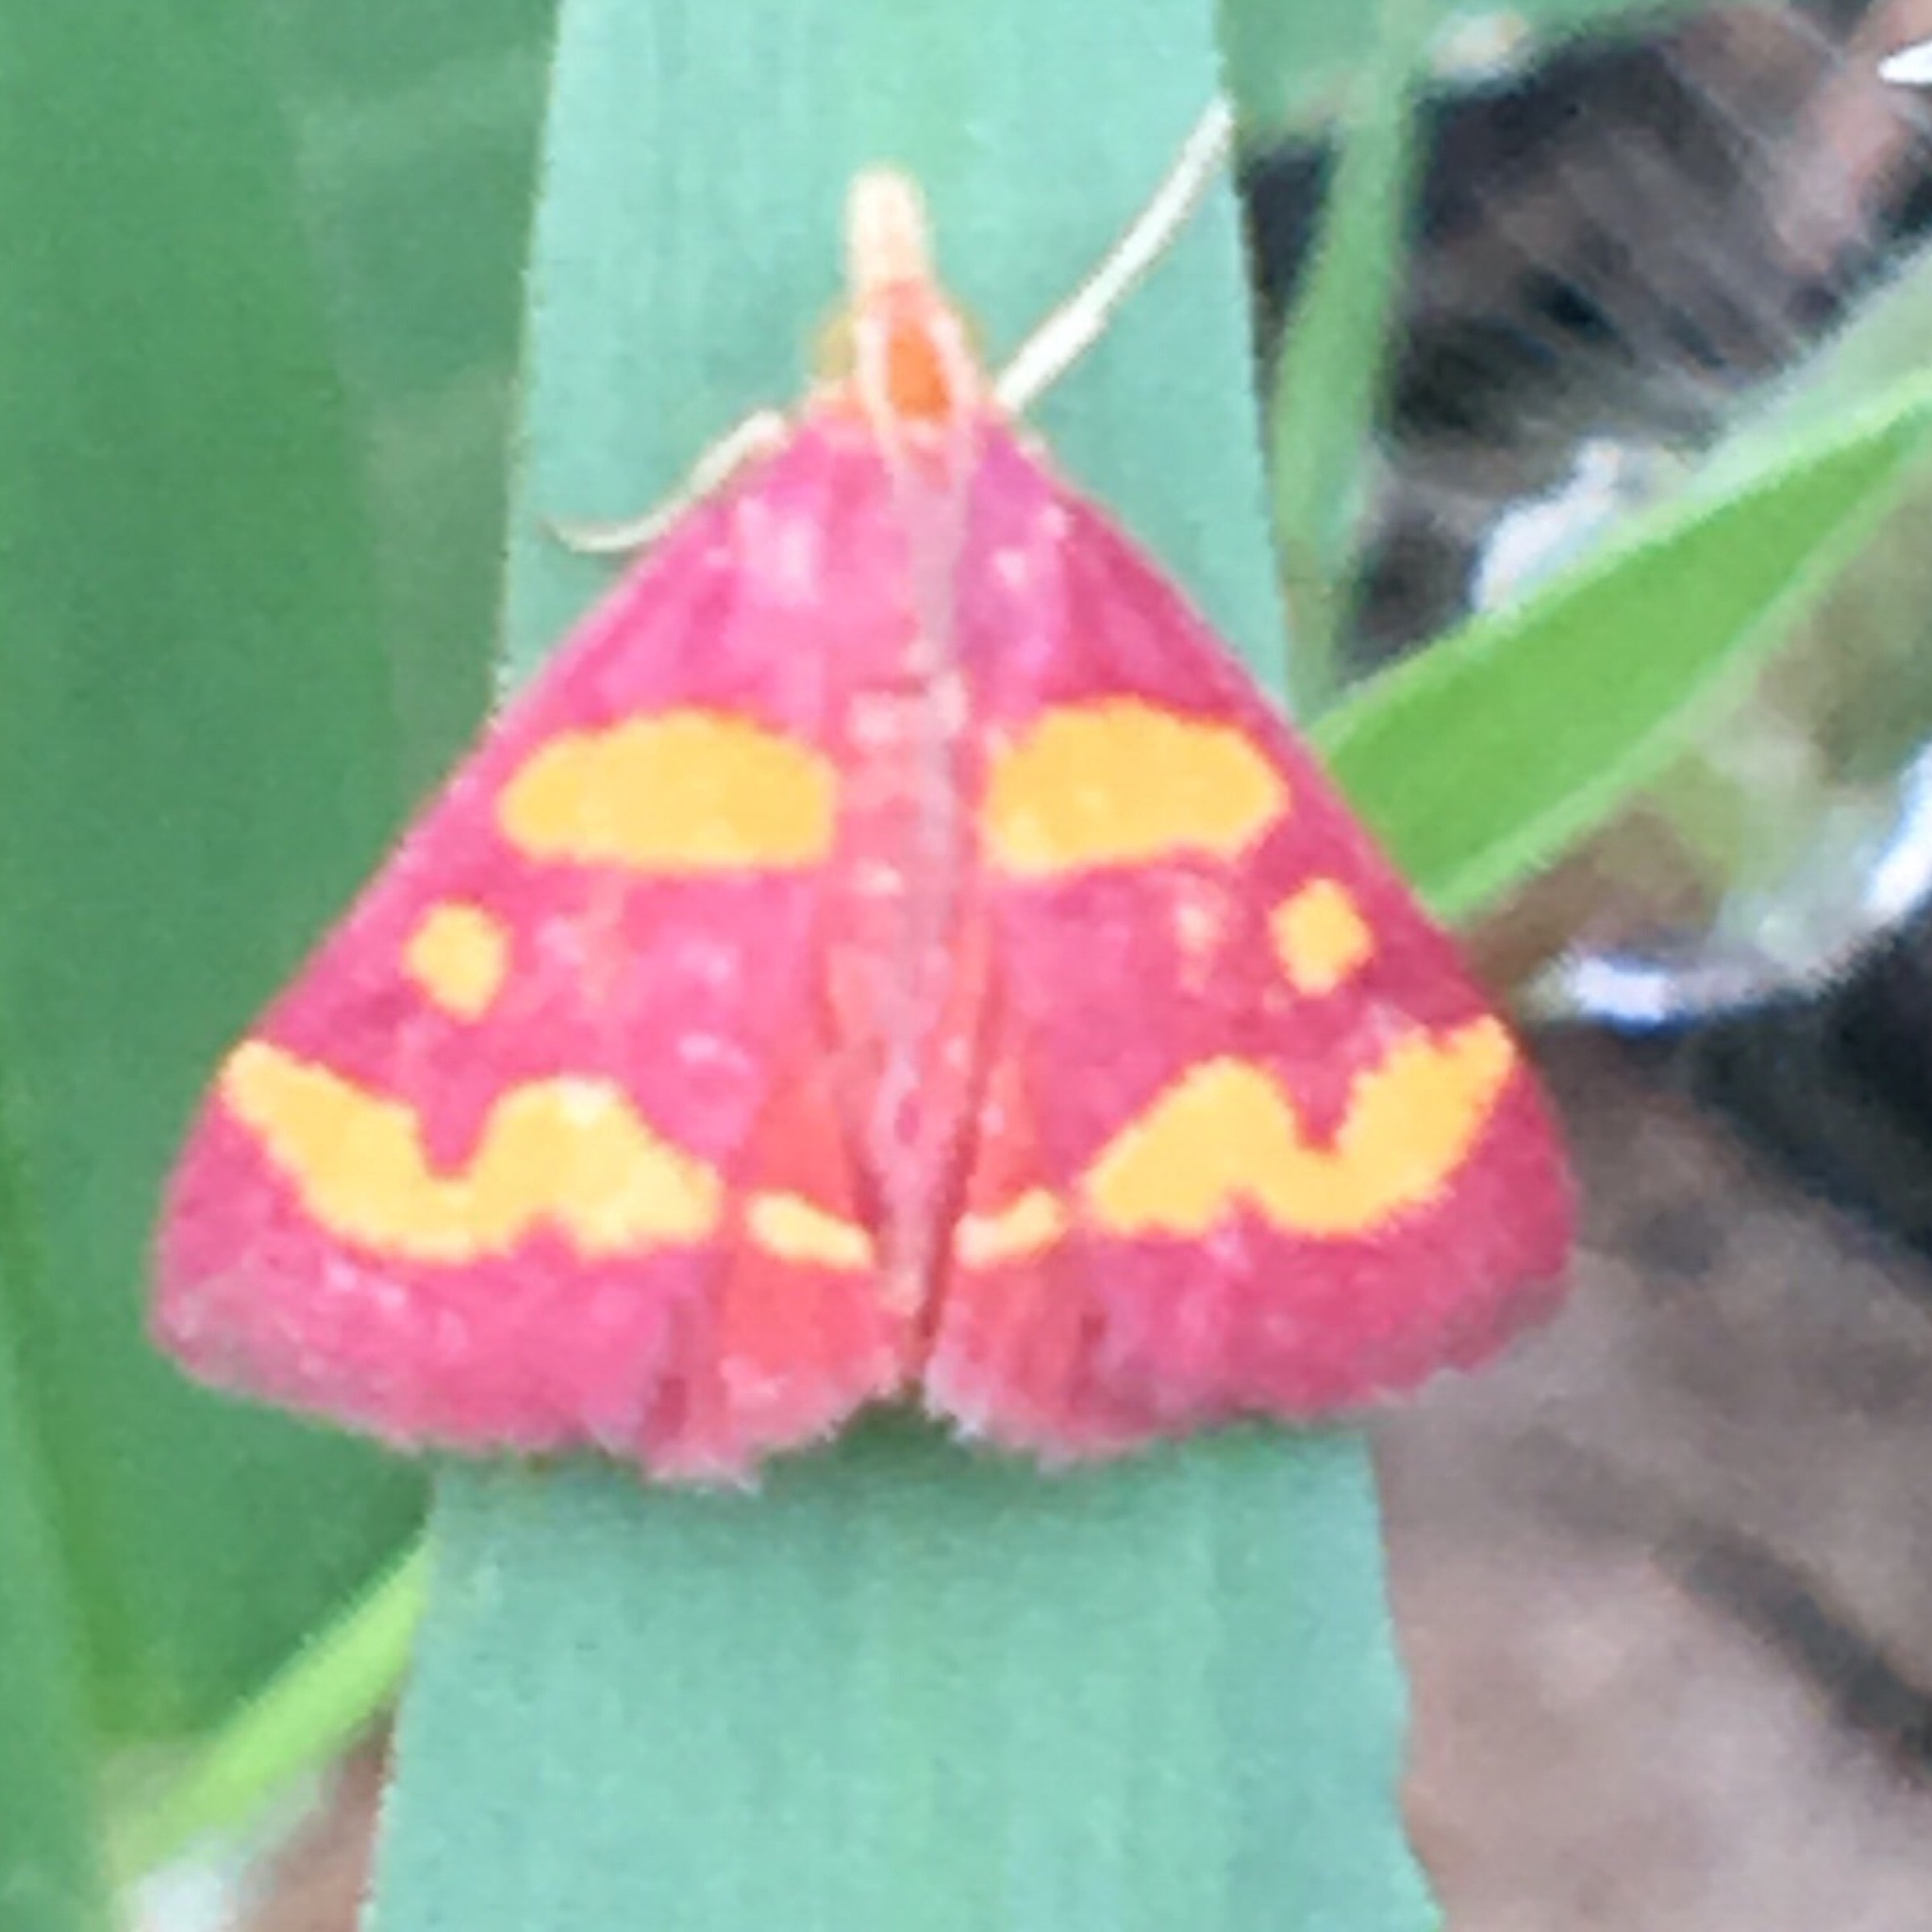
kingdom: Animalia
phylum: Arthropoda
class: Insecta
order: Lepidoptera
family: Crambidae
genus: Pyrausta
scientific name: Pyrausta tyralis
